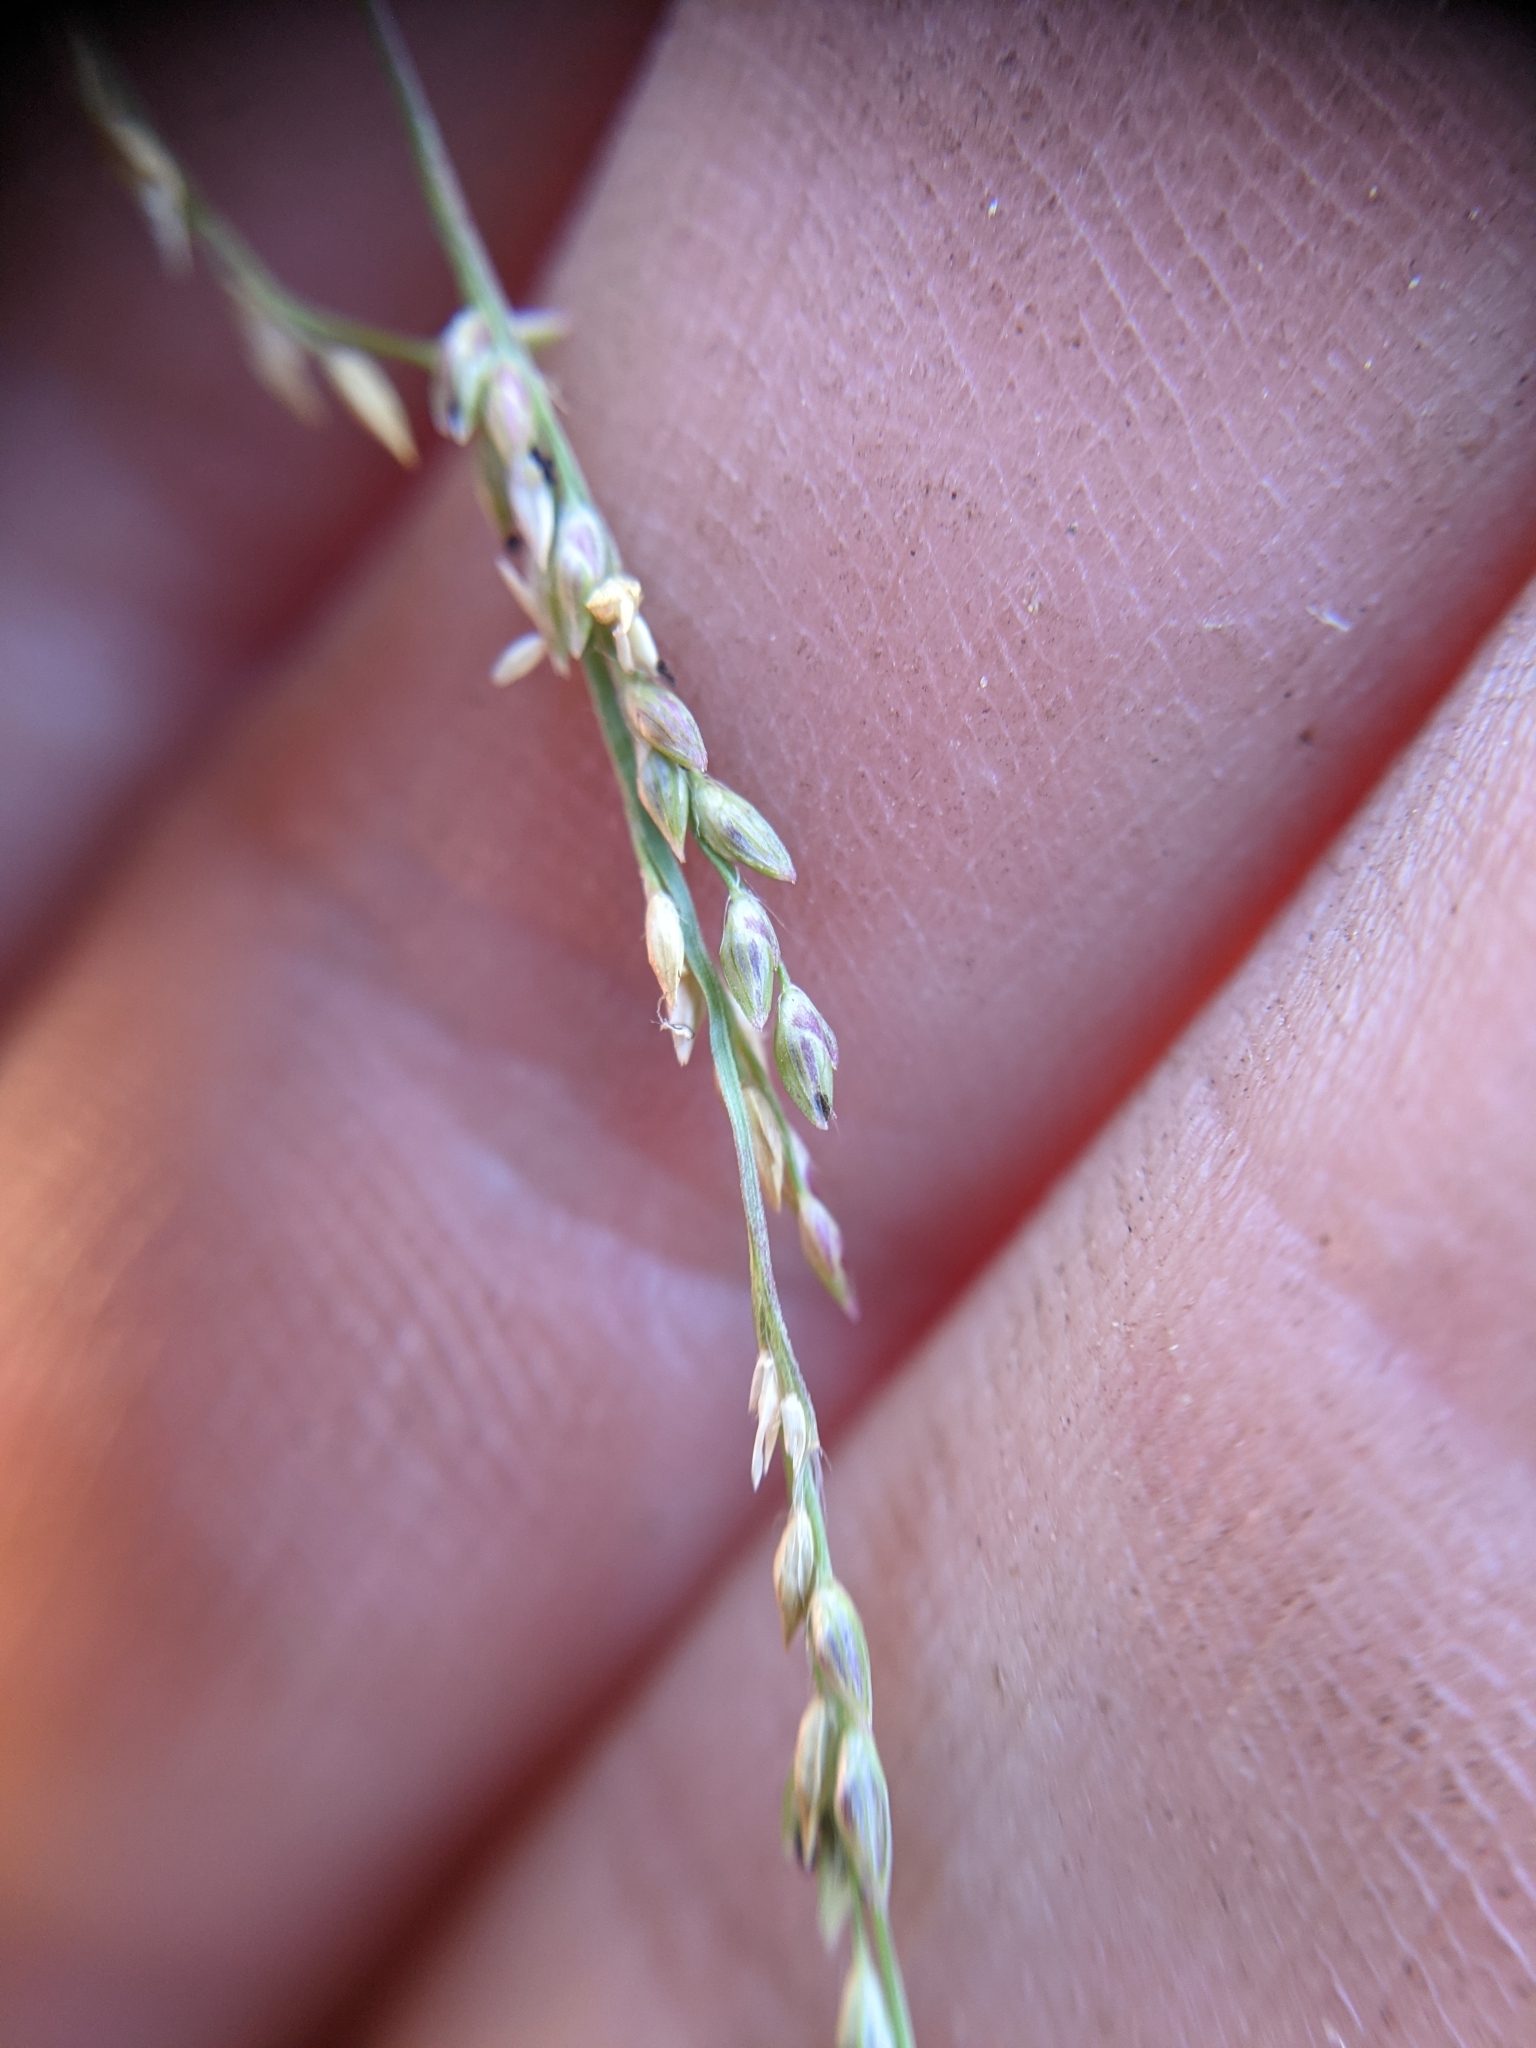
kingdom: Plantae
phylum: Tracheophyta
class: Liliopsida
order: Poales
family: Poaceae
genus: Coleataenia
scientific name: Coleataenia rigidula
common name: Redtop panicgrass
